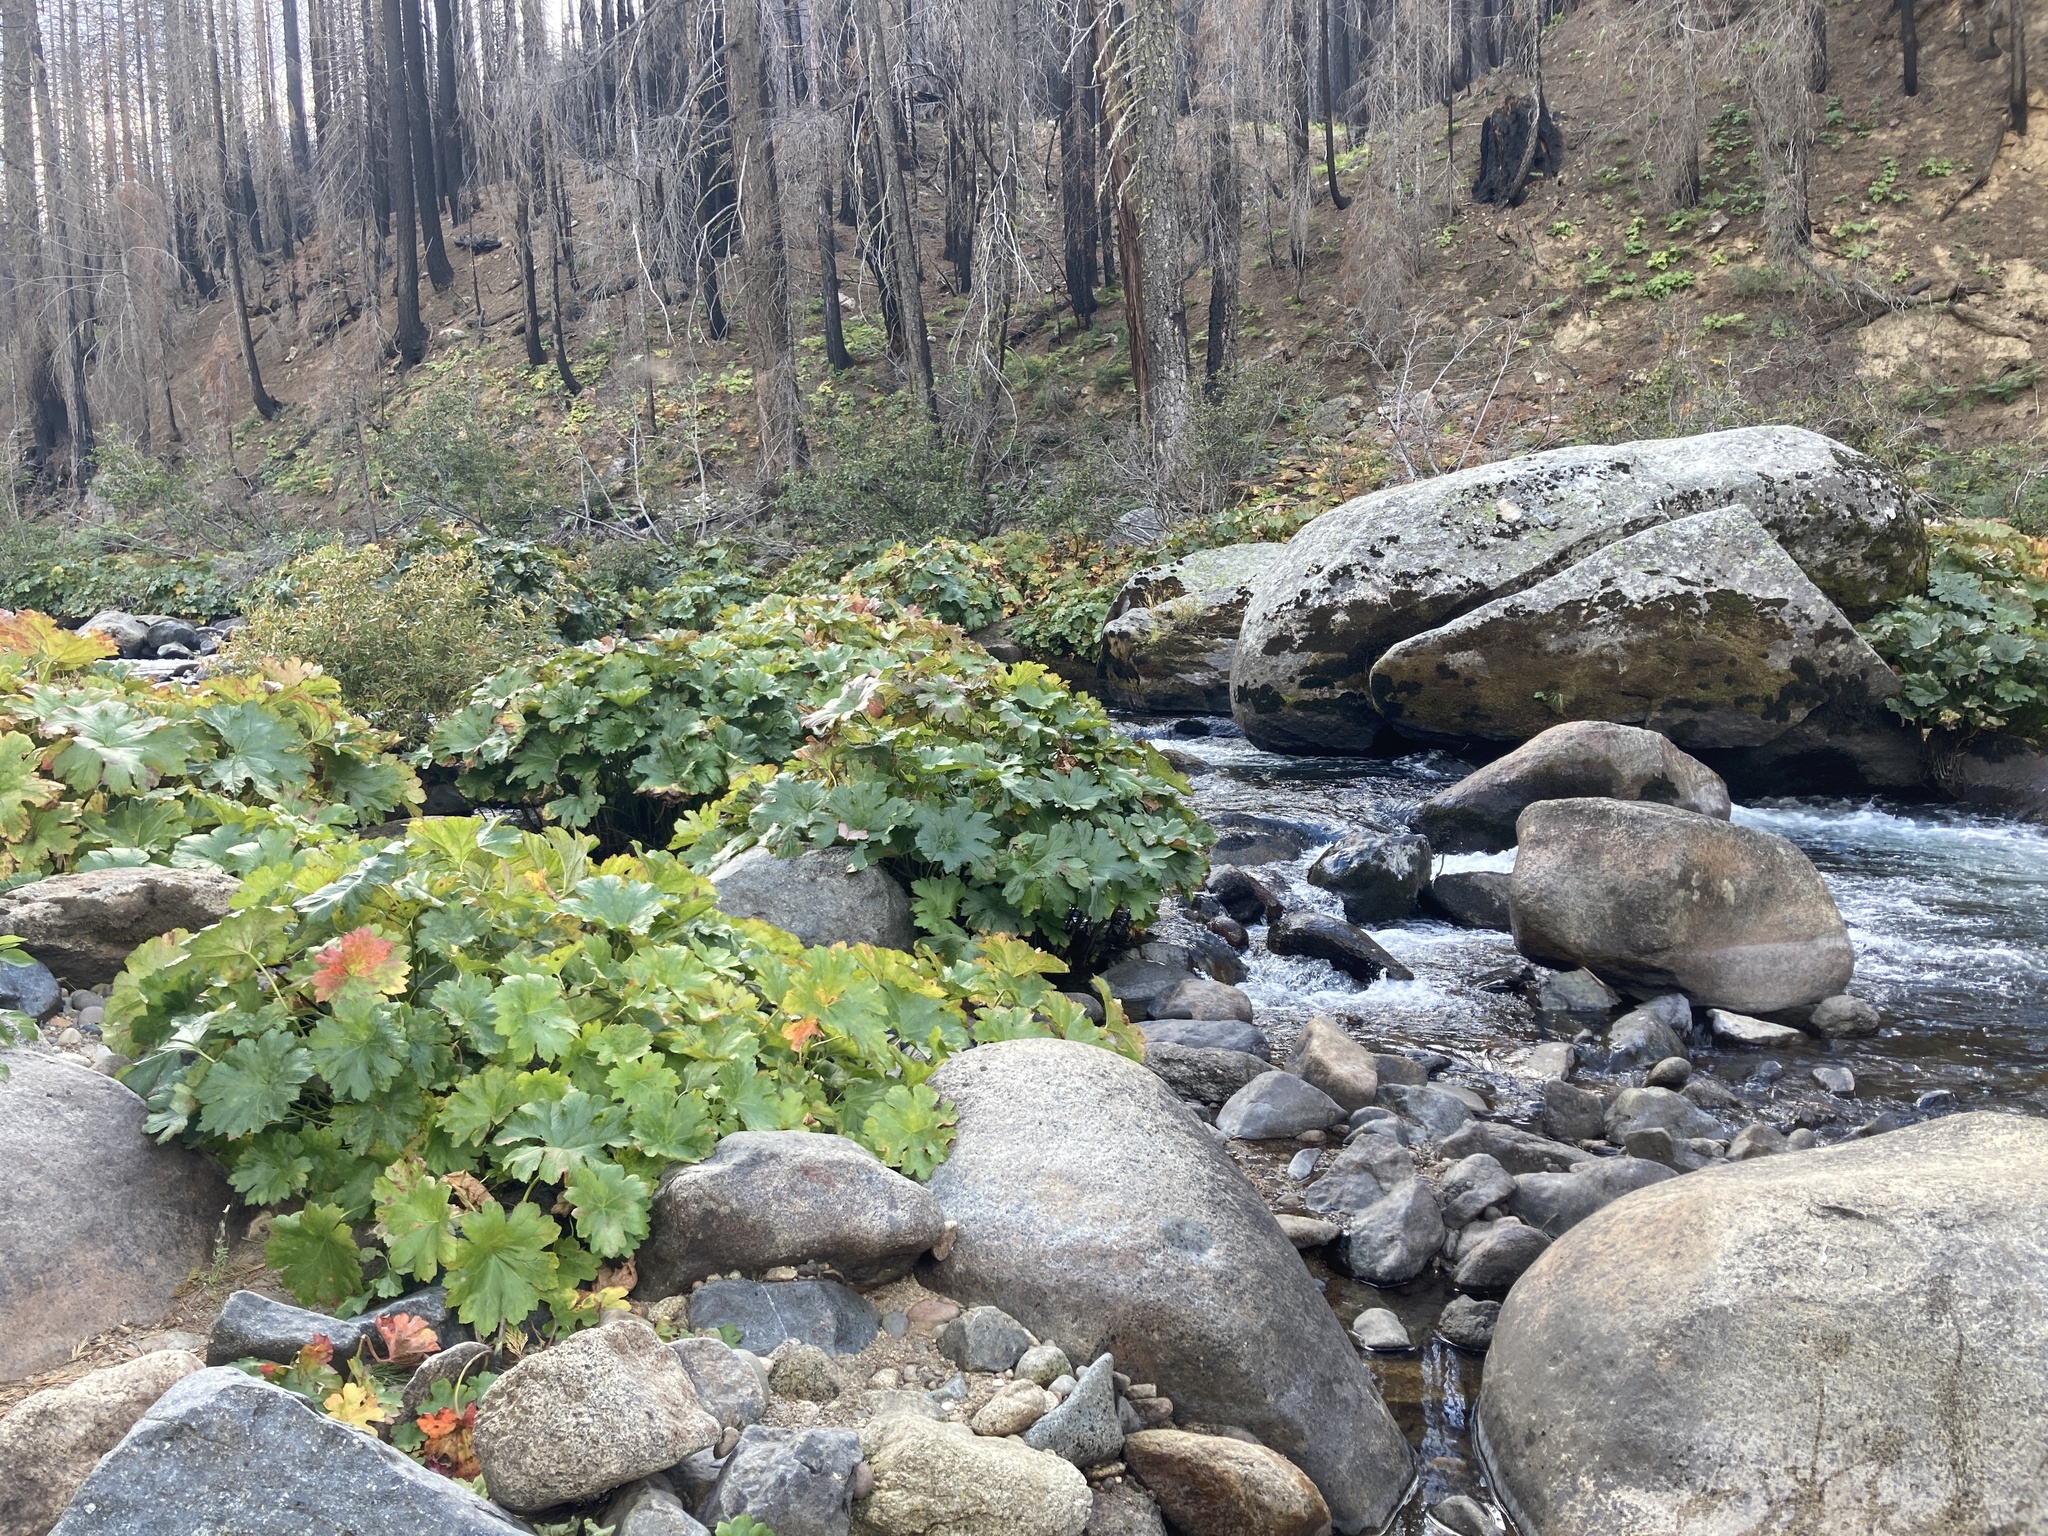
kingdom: Plantae
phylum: Tracheophyta
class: Magnoliopsida
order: Saxifragales
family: Saxifragaceae
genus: Darmera
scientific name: Darmera peltata
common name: Indian-rhubarb
